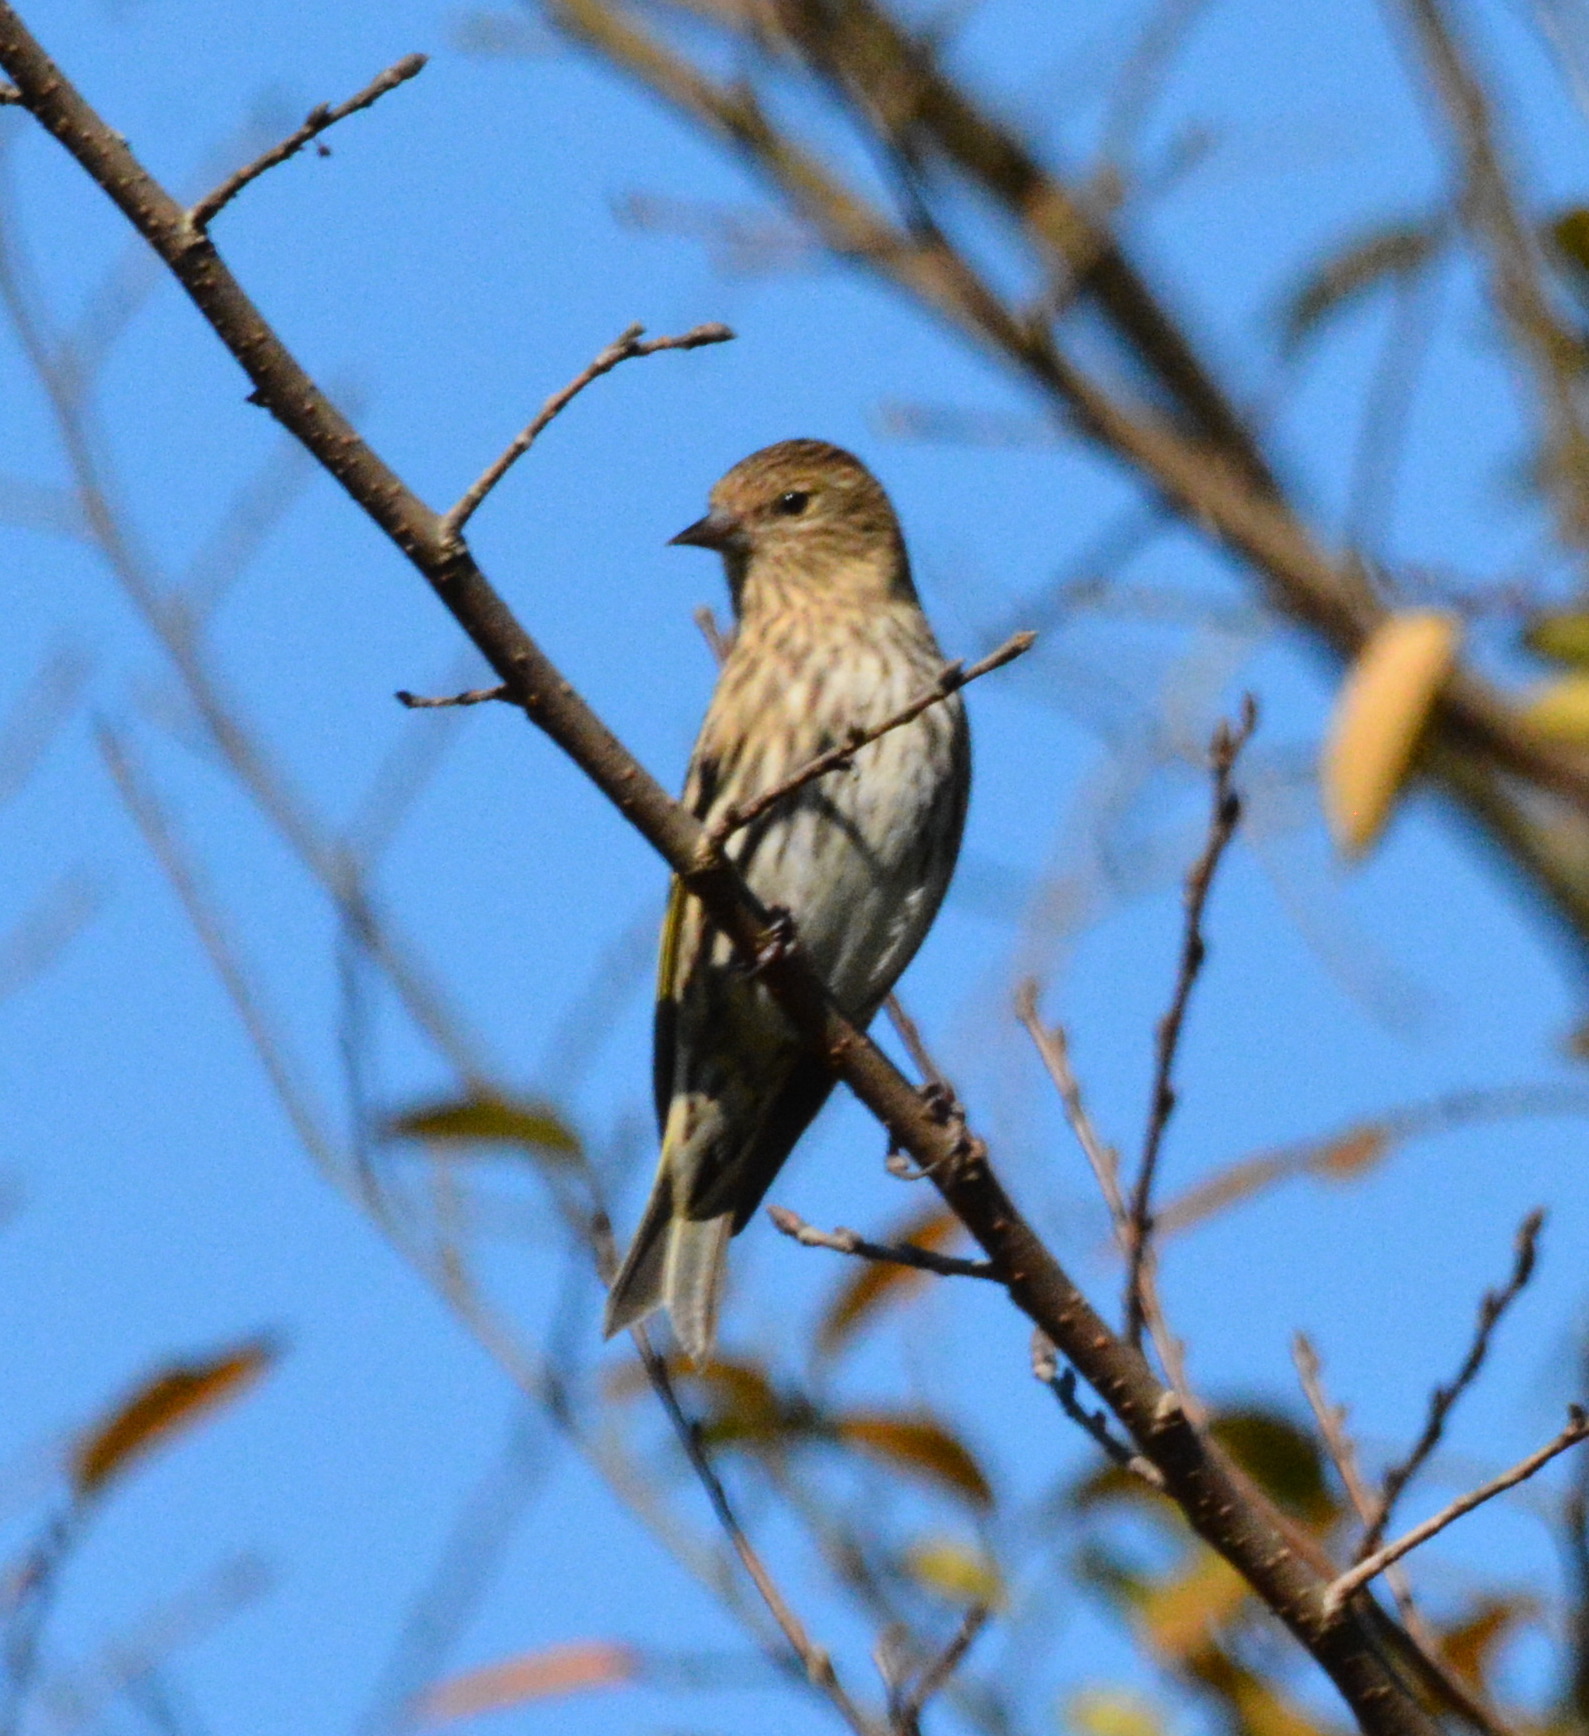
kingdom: Animalia
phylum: Chordata
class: Aves
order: Passeriformes
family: Fringillidae
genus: Spinus
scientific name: Spinus pinus
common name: Pine siskin
